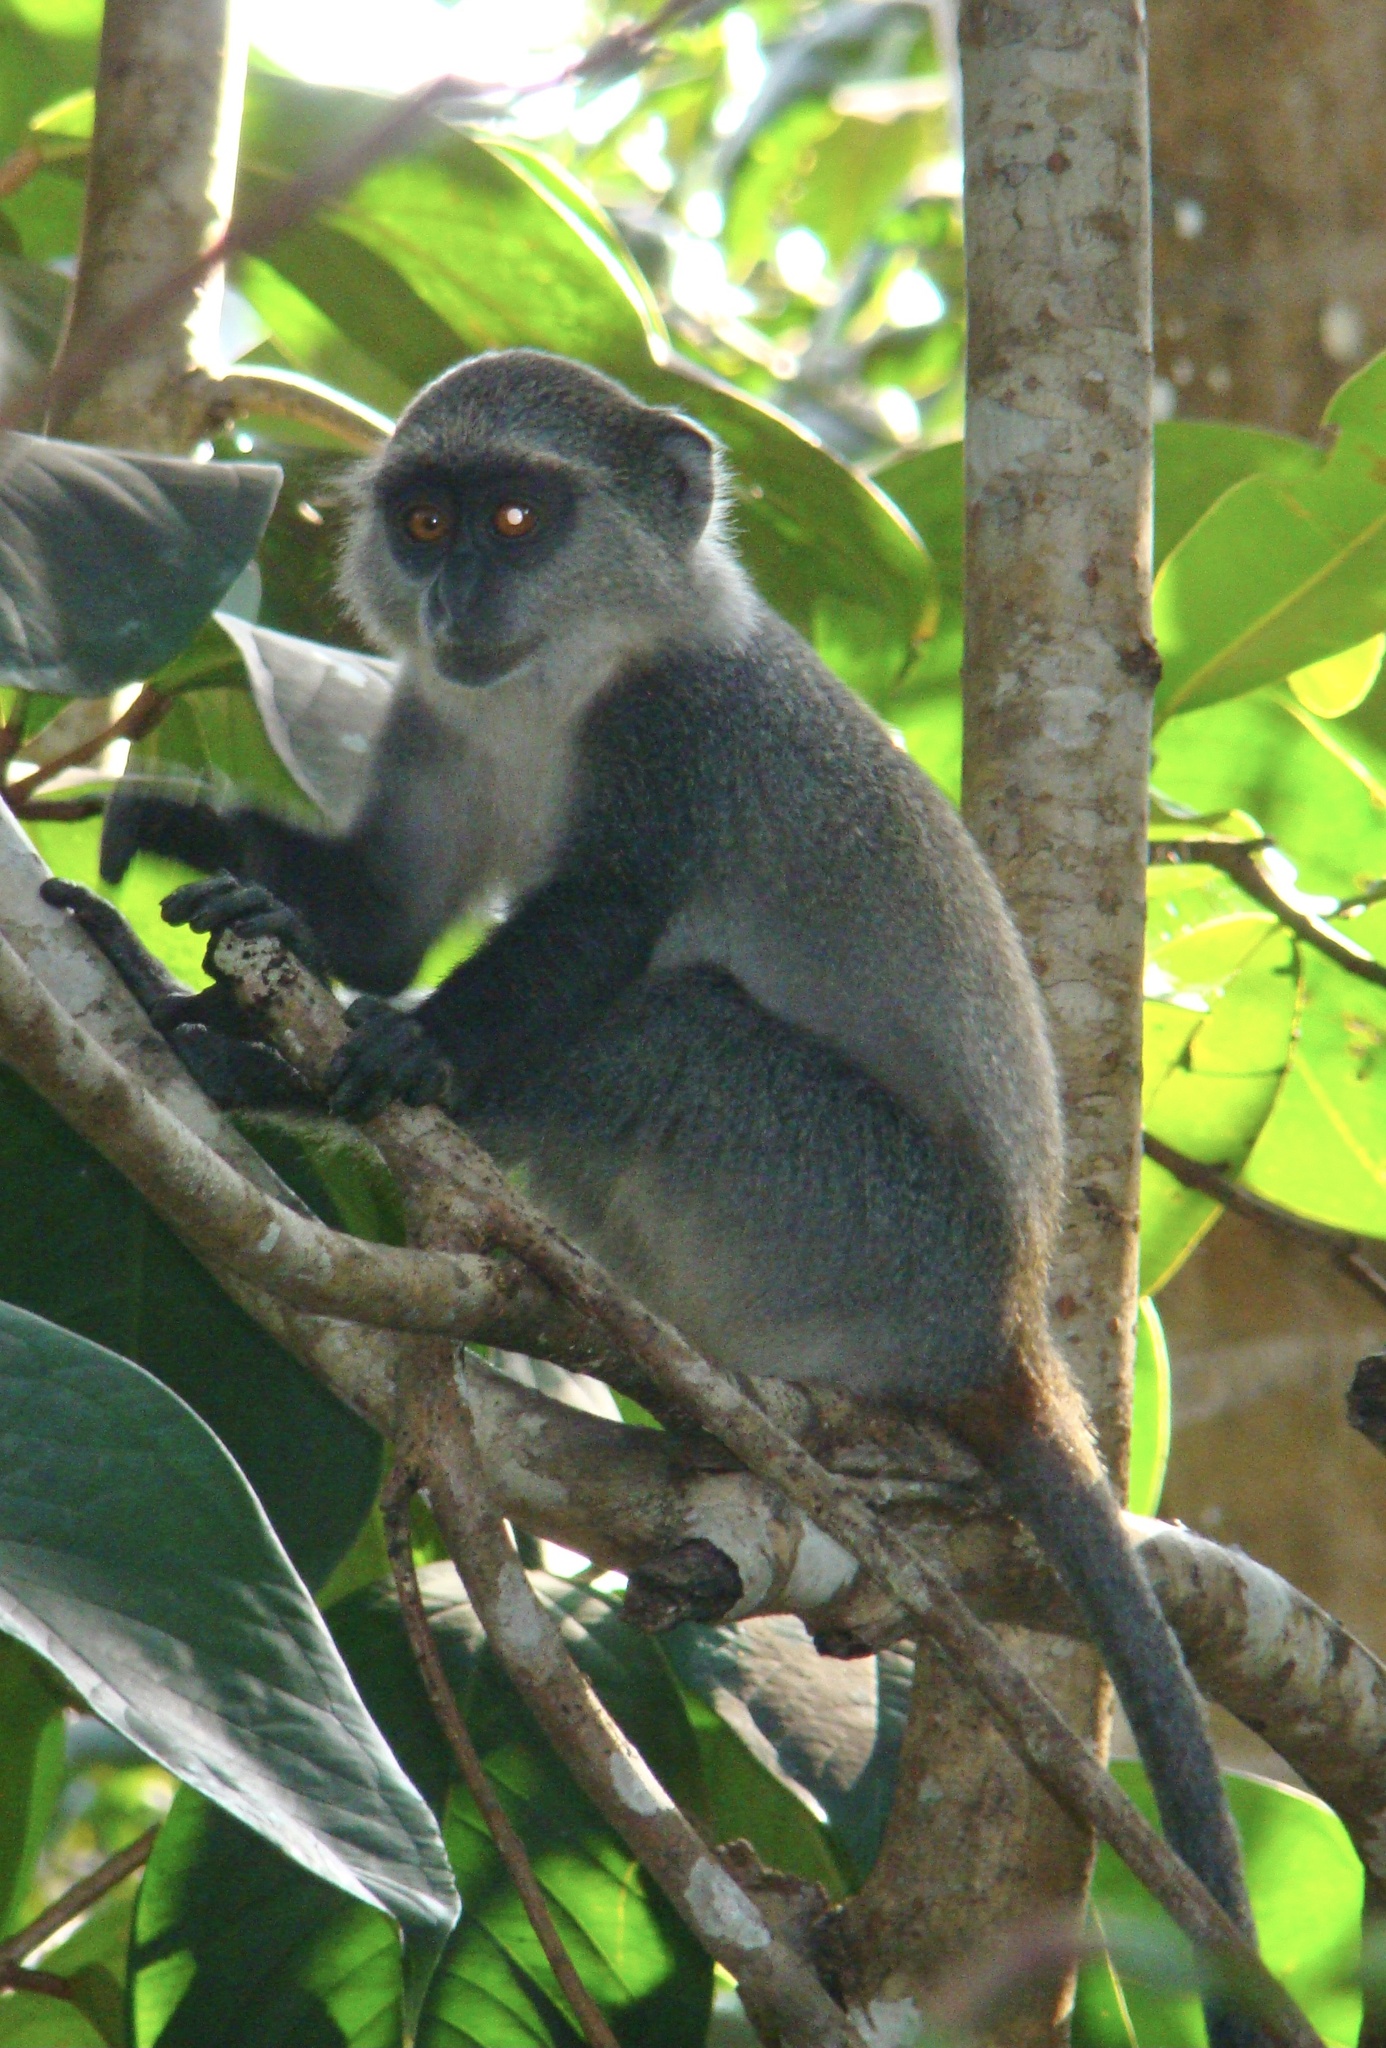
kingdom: Animalia
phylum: Chordata
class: Mammalia
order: Primates
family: Cercopithecidae
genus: Cercopithecus
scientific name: Cercopithecus mitis
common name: Blue monkey
